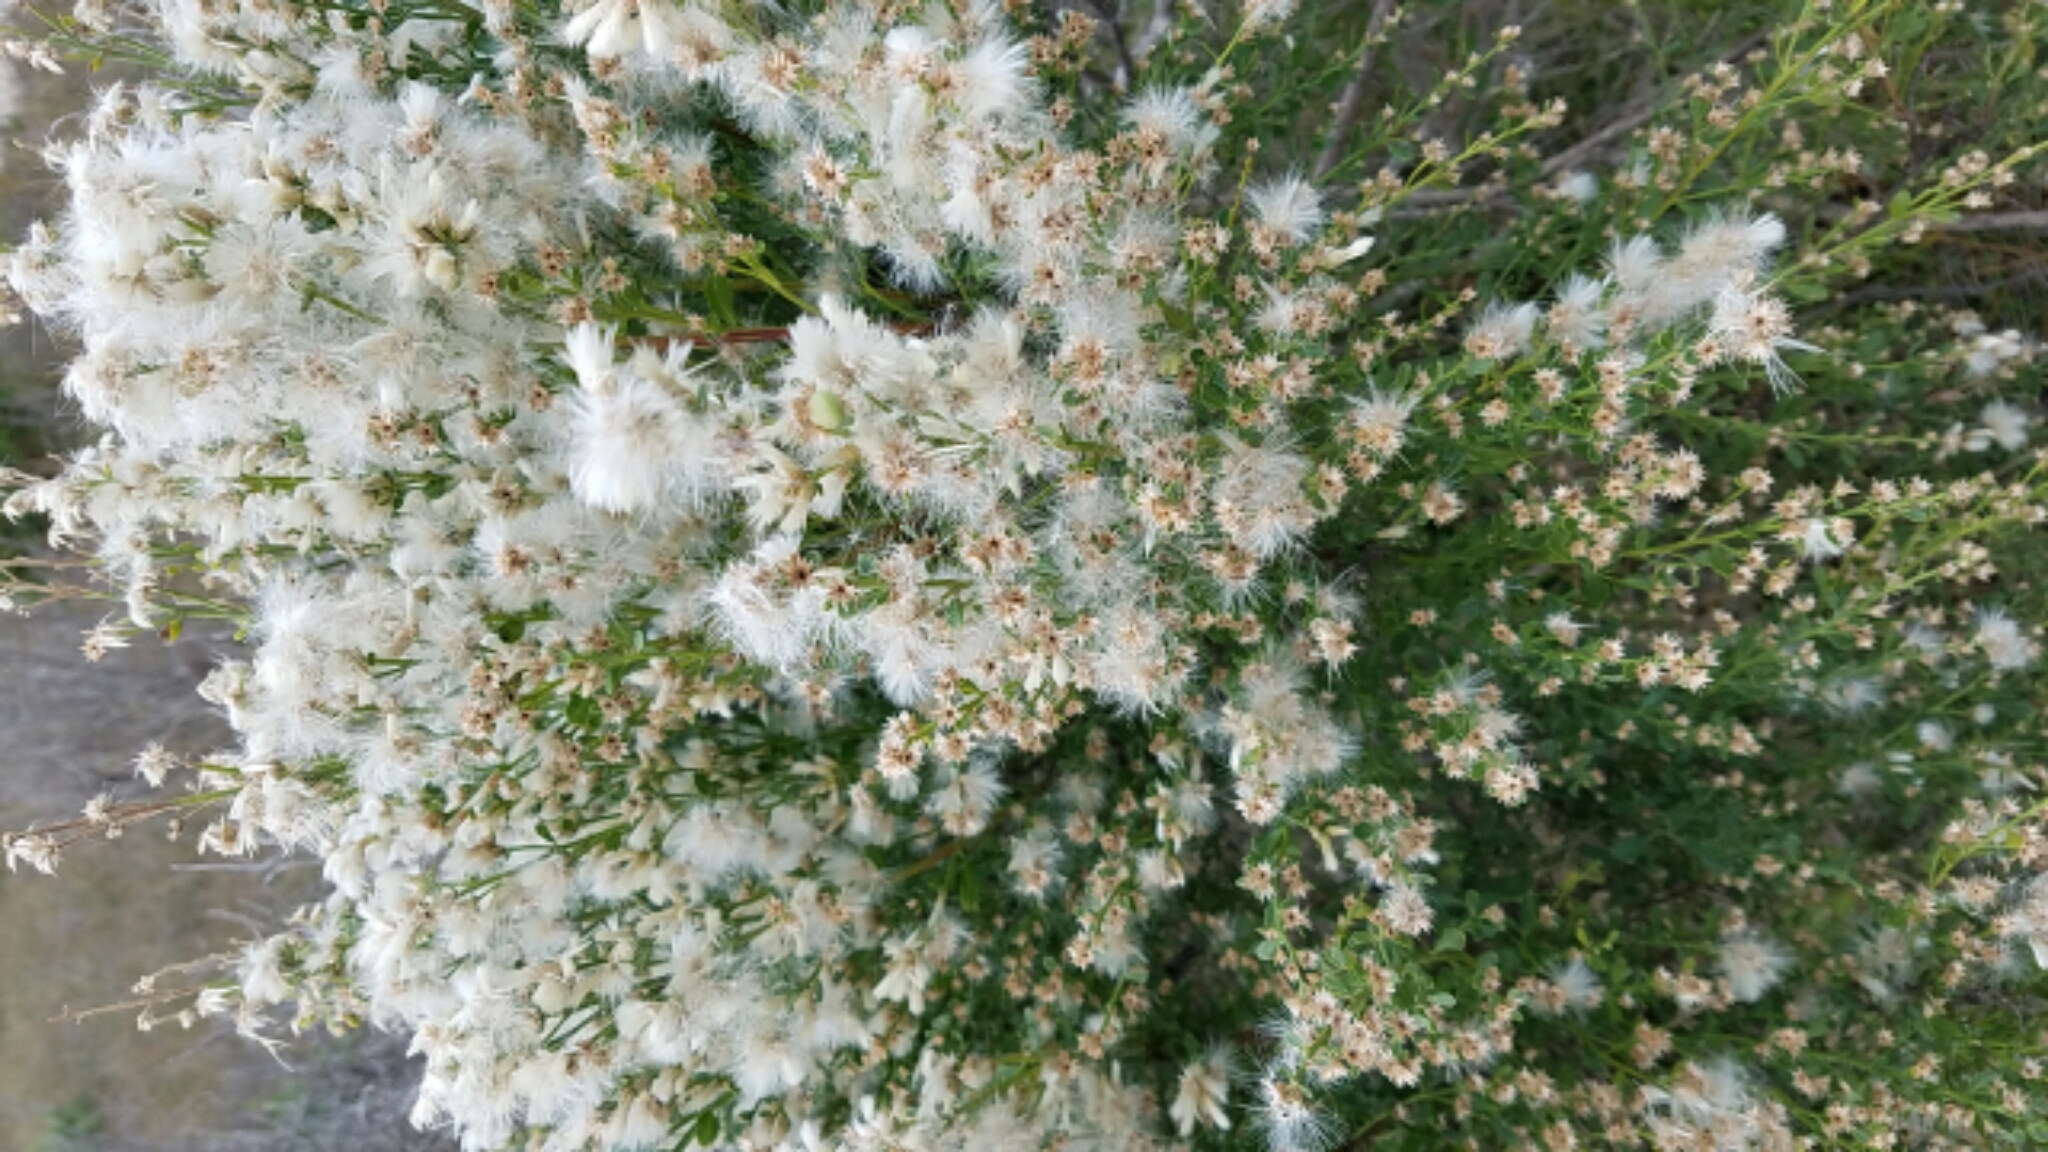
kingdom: Plantae
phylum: Tracheophyta
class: Magnoliopsida
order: Asterales
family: Asteraceae
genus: Baccharis
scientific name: Baccharis pilularis
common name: Coyotebrush
